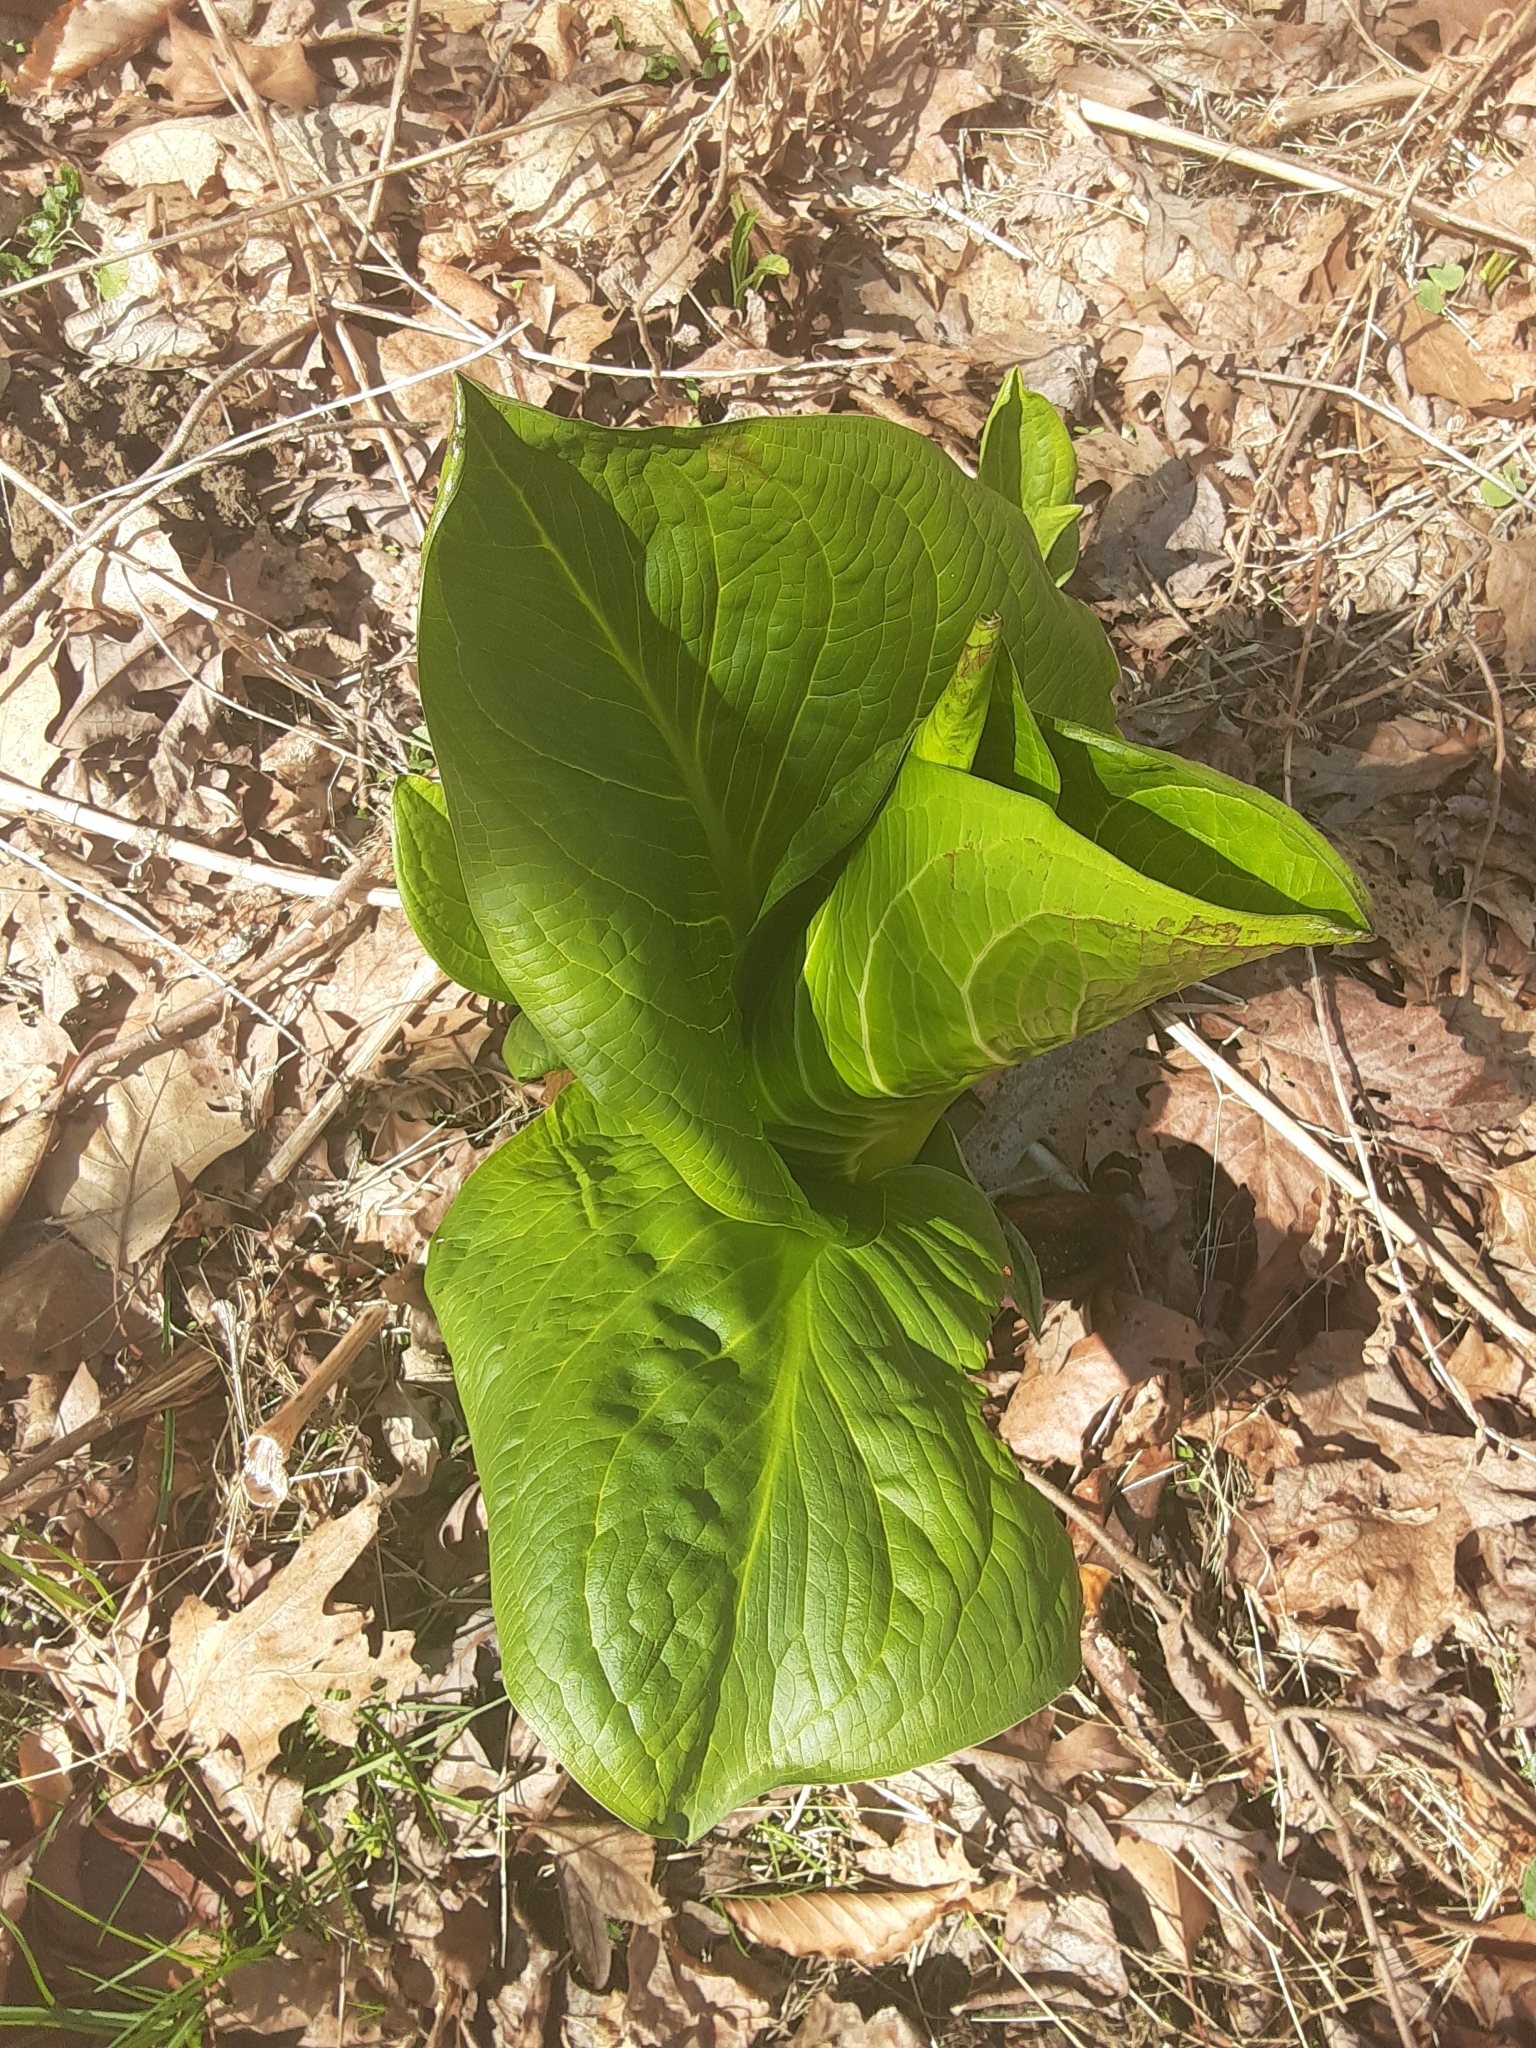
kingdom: Plantae
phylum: Tracheophyta
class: Liliopsida
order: Alismatales
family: Araceae
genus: Symplocarpus
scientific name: Symplocarpus foetidus
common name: Eastern skunk cabbage
